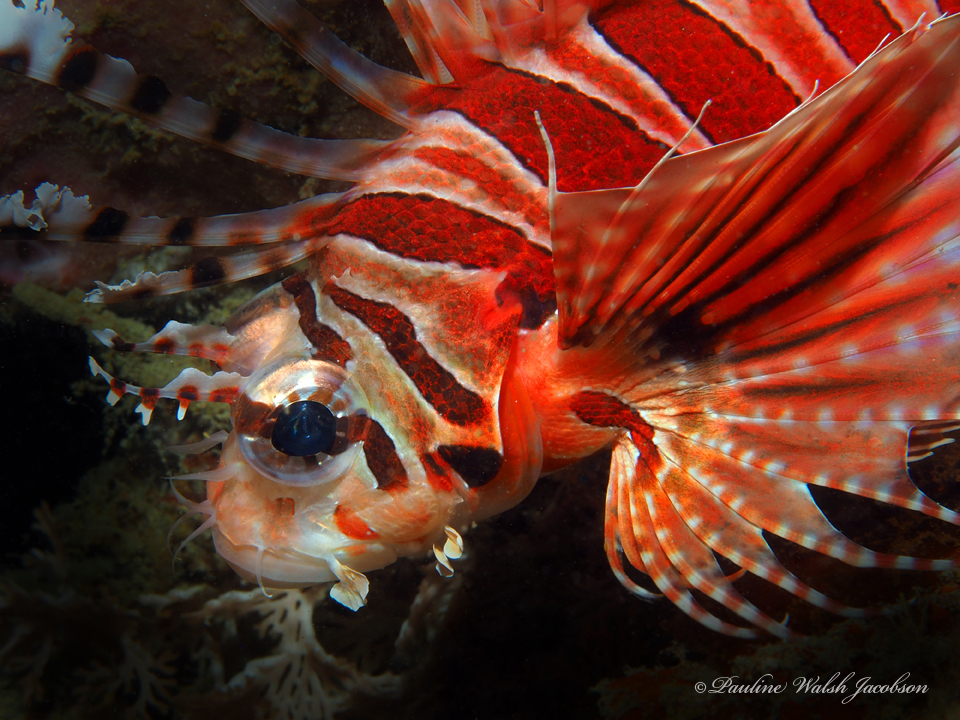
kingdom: Animalia
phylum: Chordata
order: Scorpaeniformes
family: Scorpaenidae
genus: Dendrochirus
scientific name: Dendrochirus zebra
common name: Zebra lionfish
